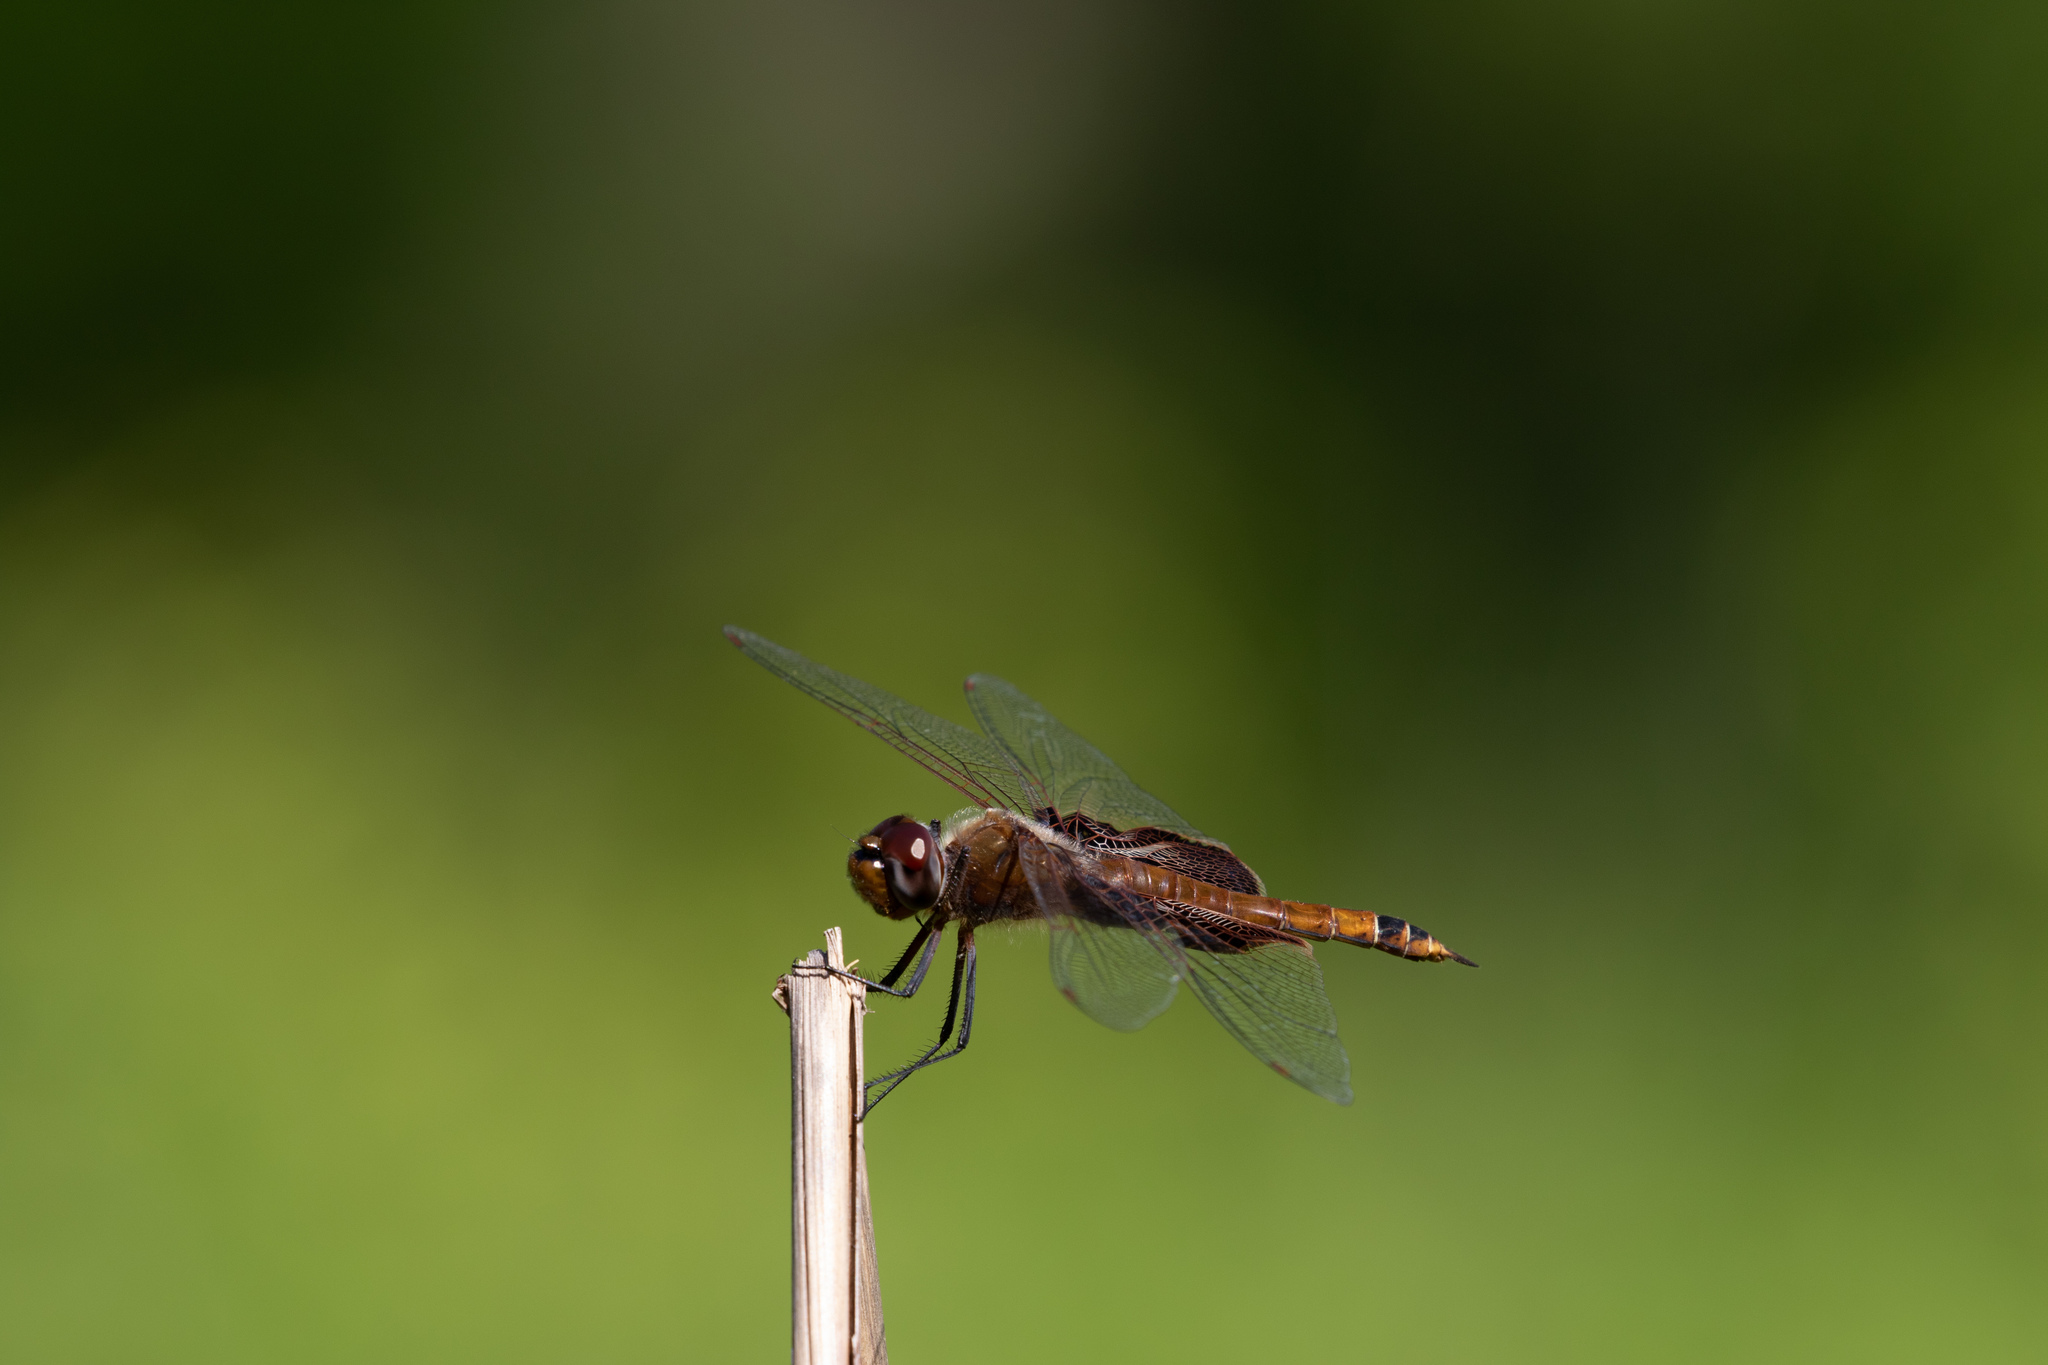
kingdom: Animalia
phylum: Arthropoda
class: Insecta
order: Odonata
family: Libellulidae
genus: Tramea
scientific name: Tramea carolina
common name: Carolina saddlebags
